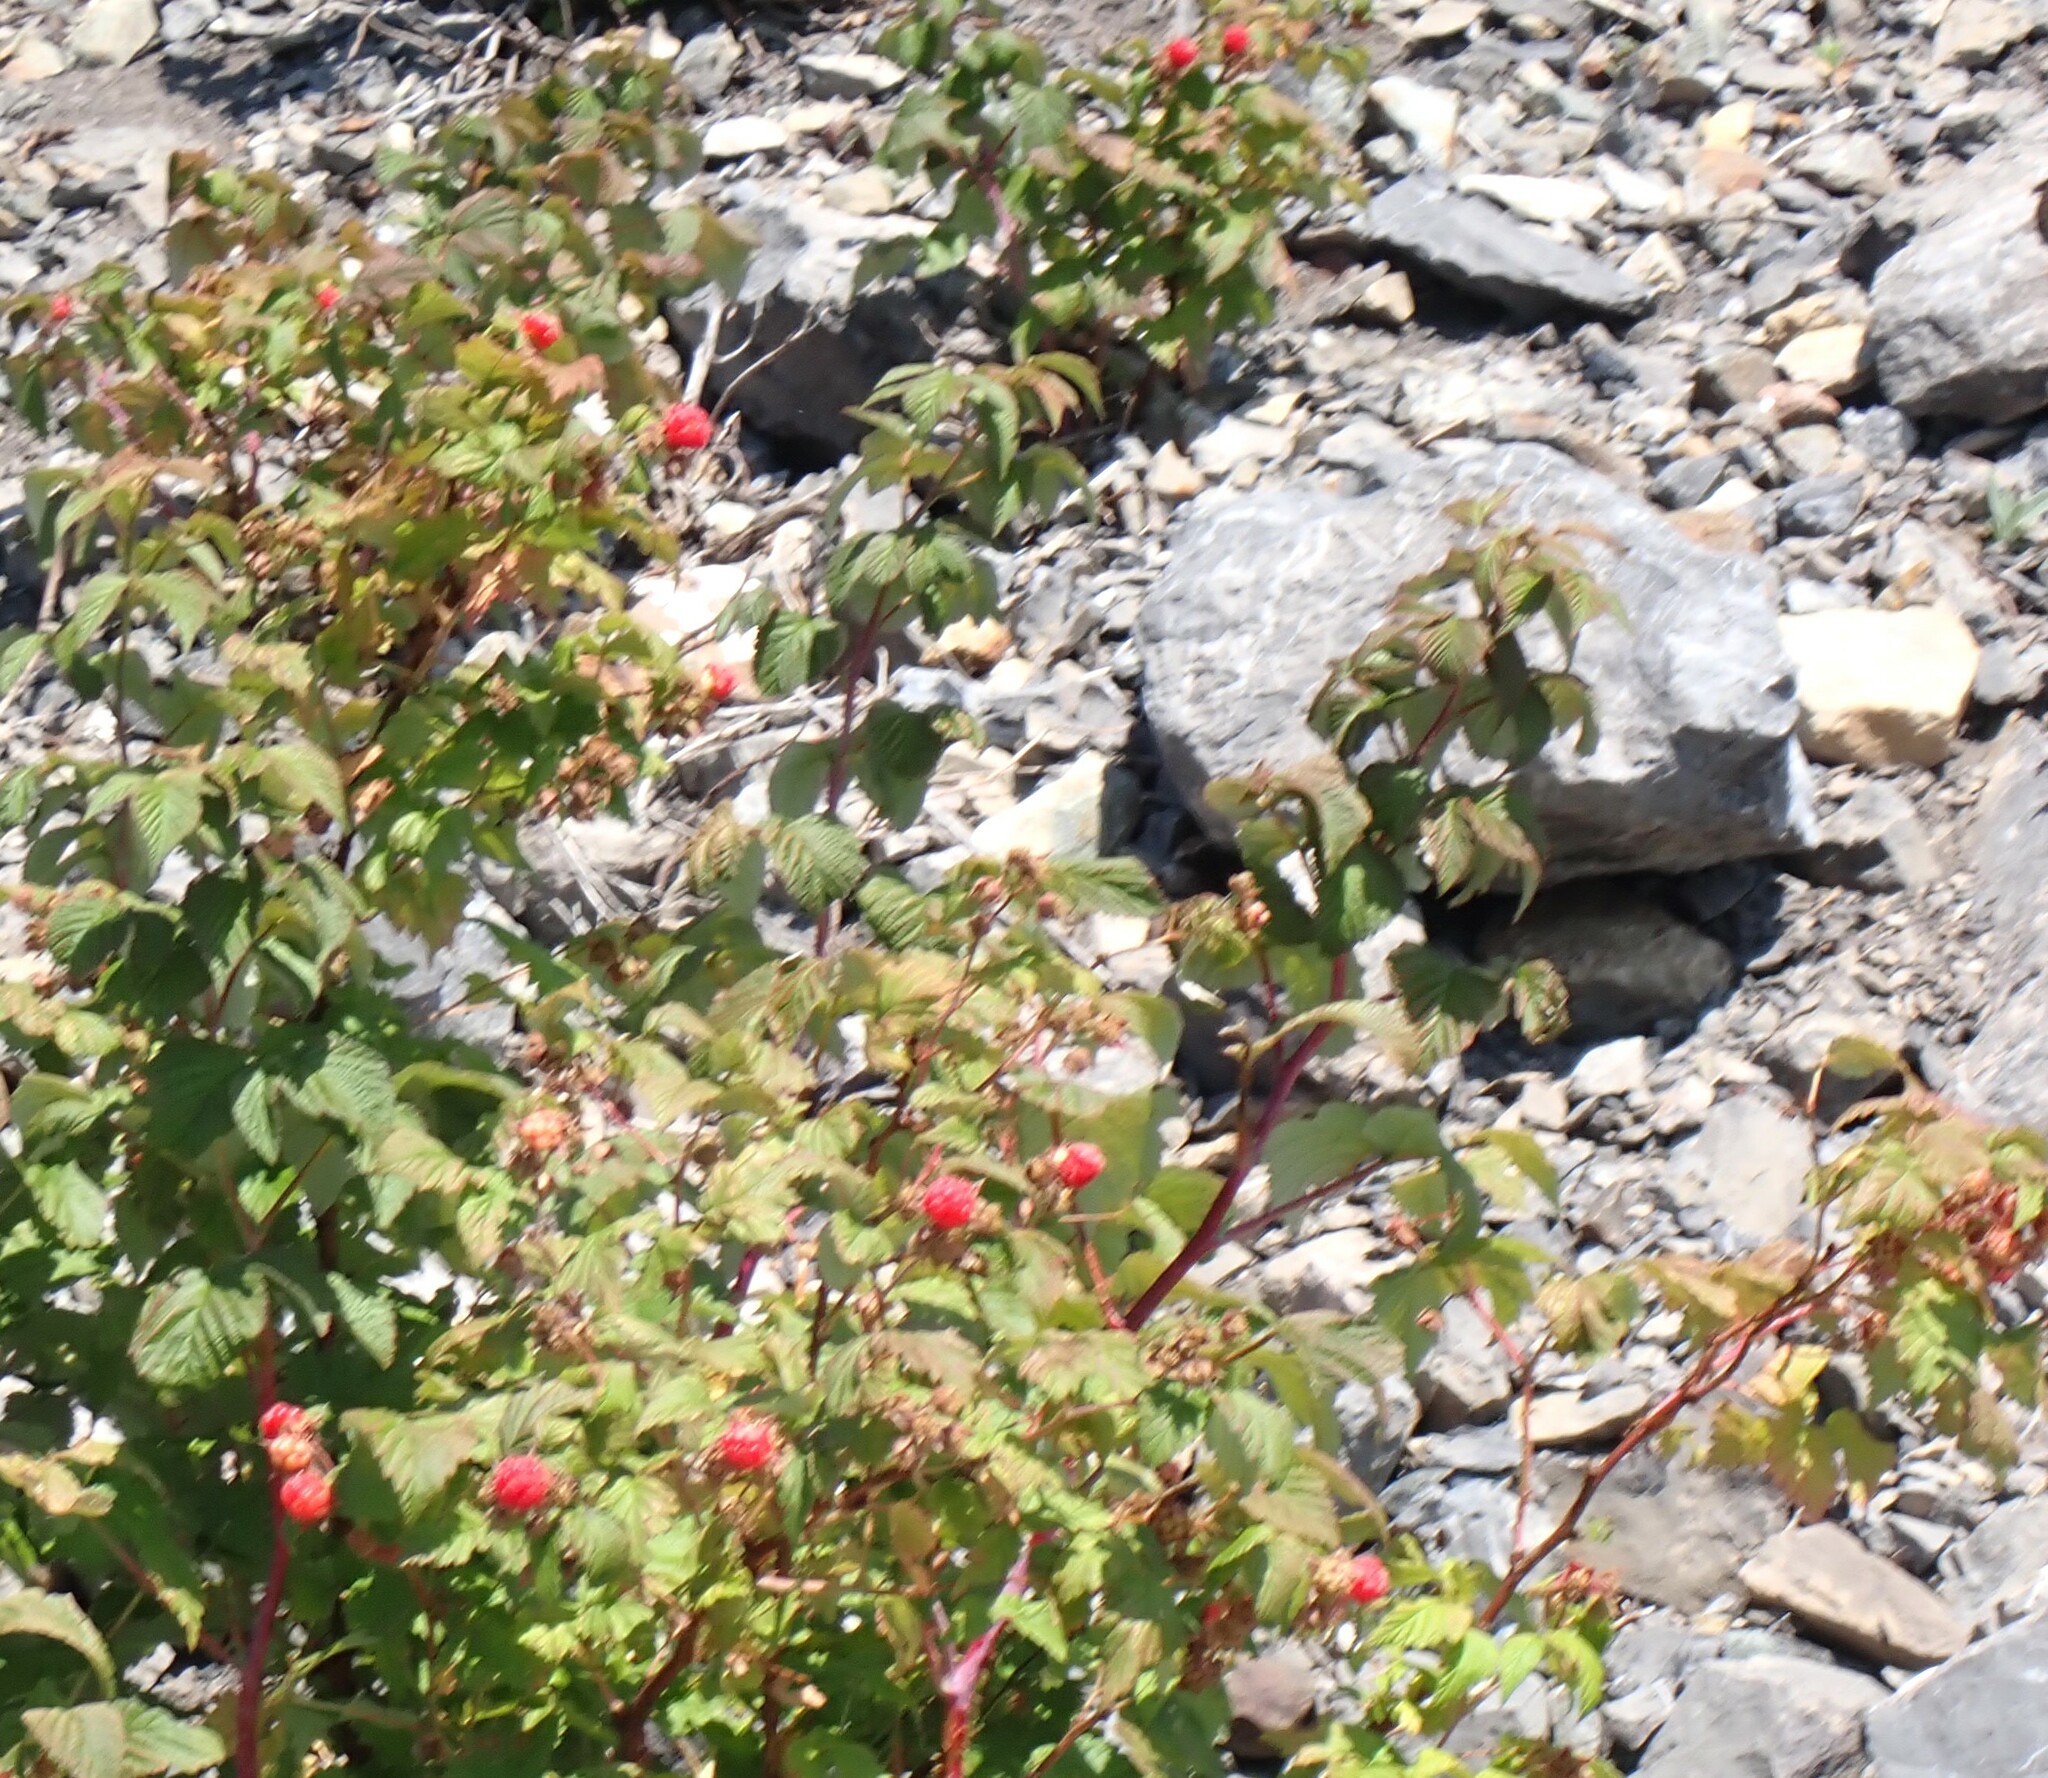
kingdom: Plantae
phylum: Tracheophyta
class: Magnoliopsida
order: Rosales
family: Rosaceae
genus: Rubus
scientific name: Rubus idaeus
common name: Raspberry
